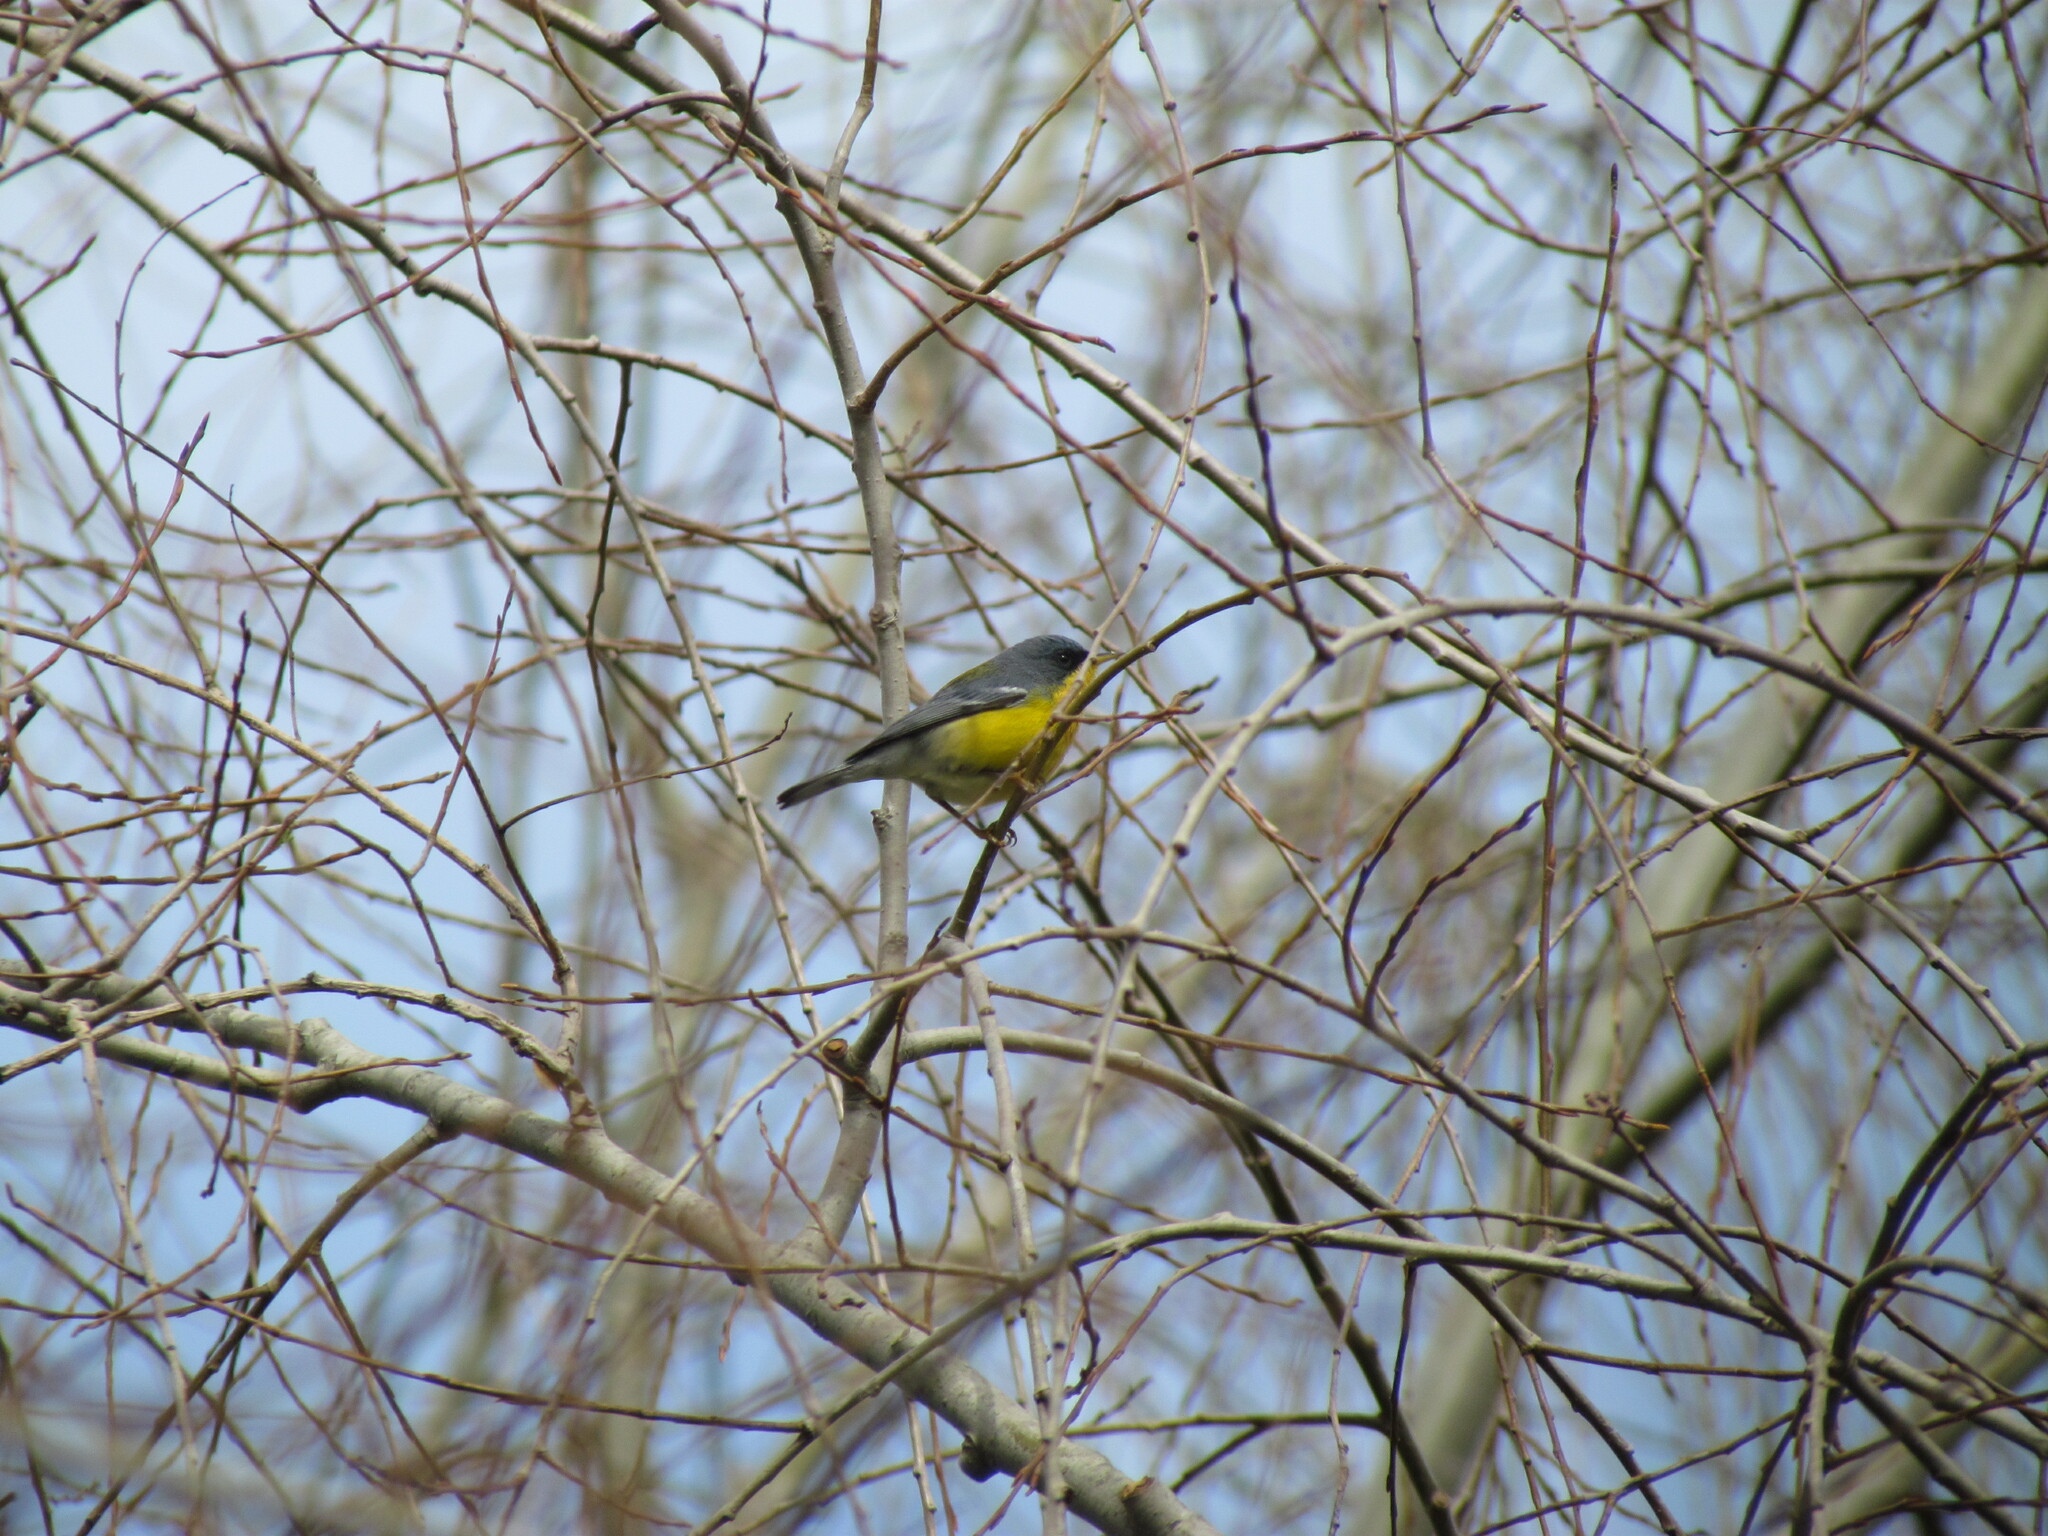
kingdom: Animalia
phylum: Chordata
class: Aves
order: Passeriformes
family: Parulidae
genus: Setophaga
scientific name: Setophaga pitiayumi
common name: Tropical parula
